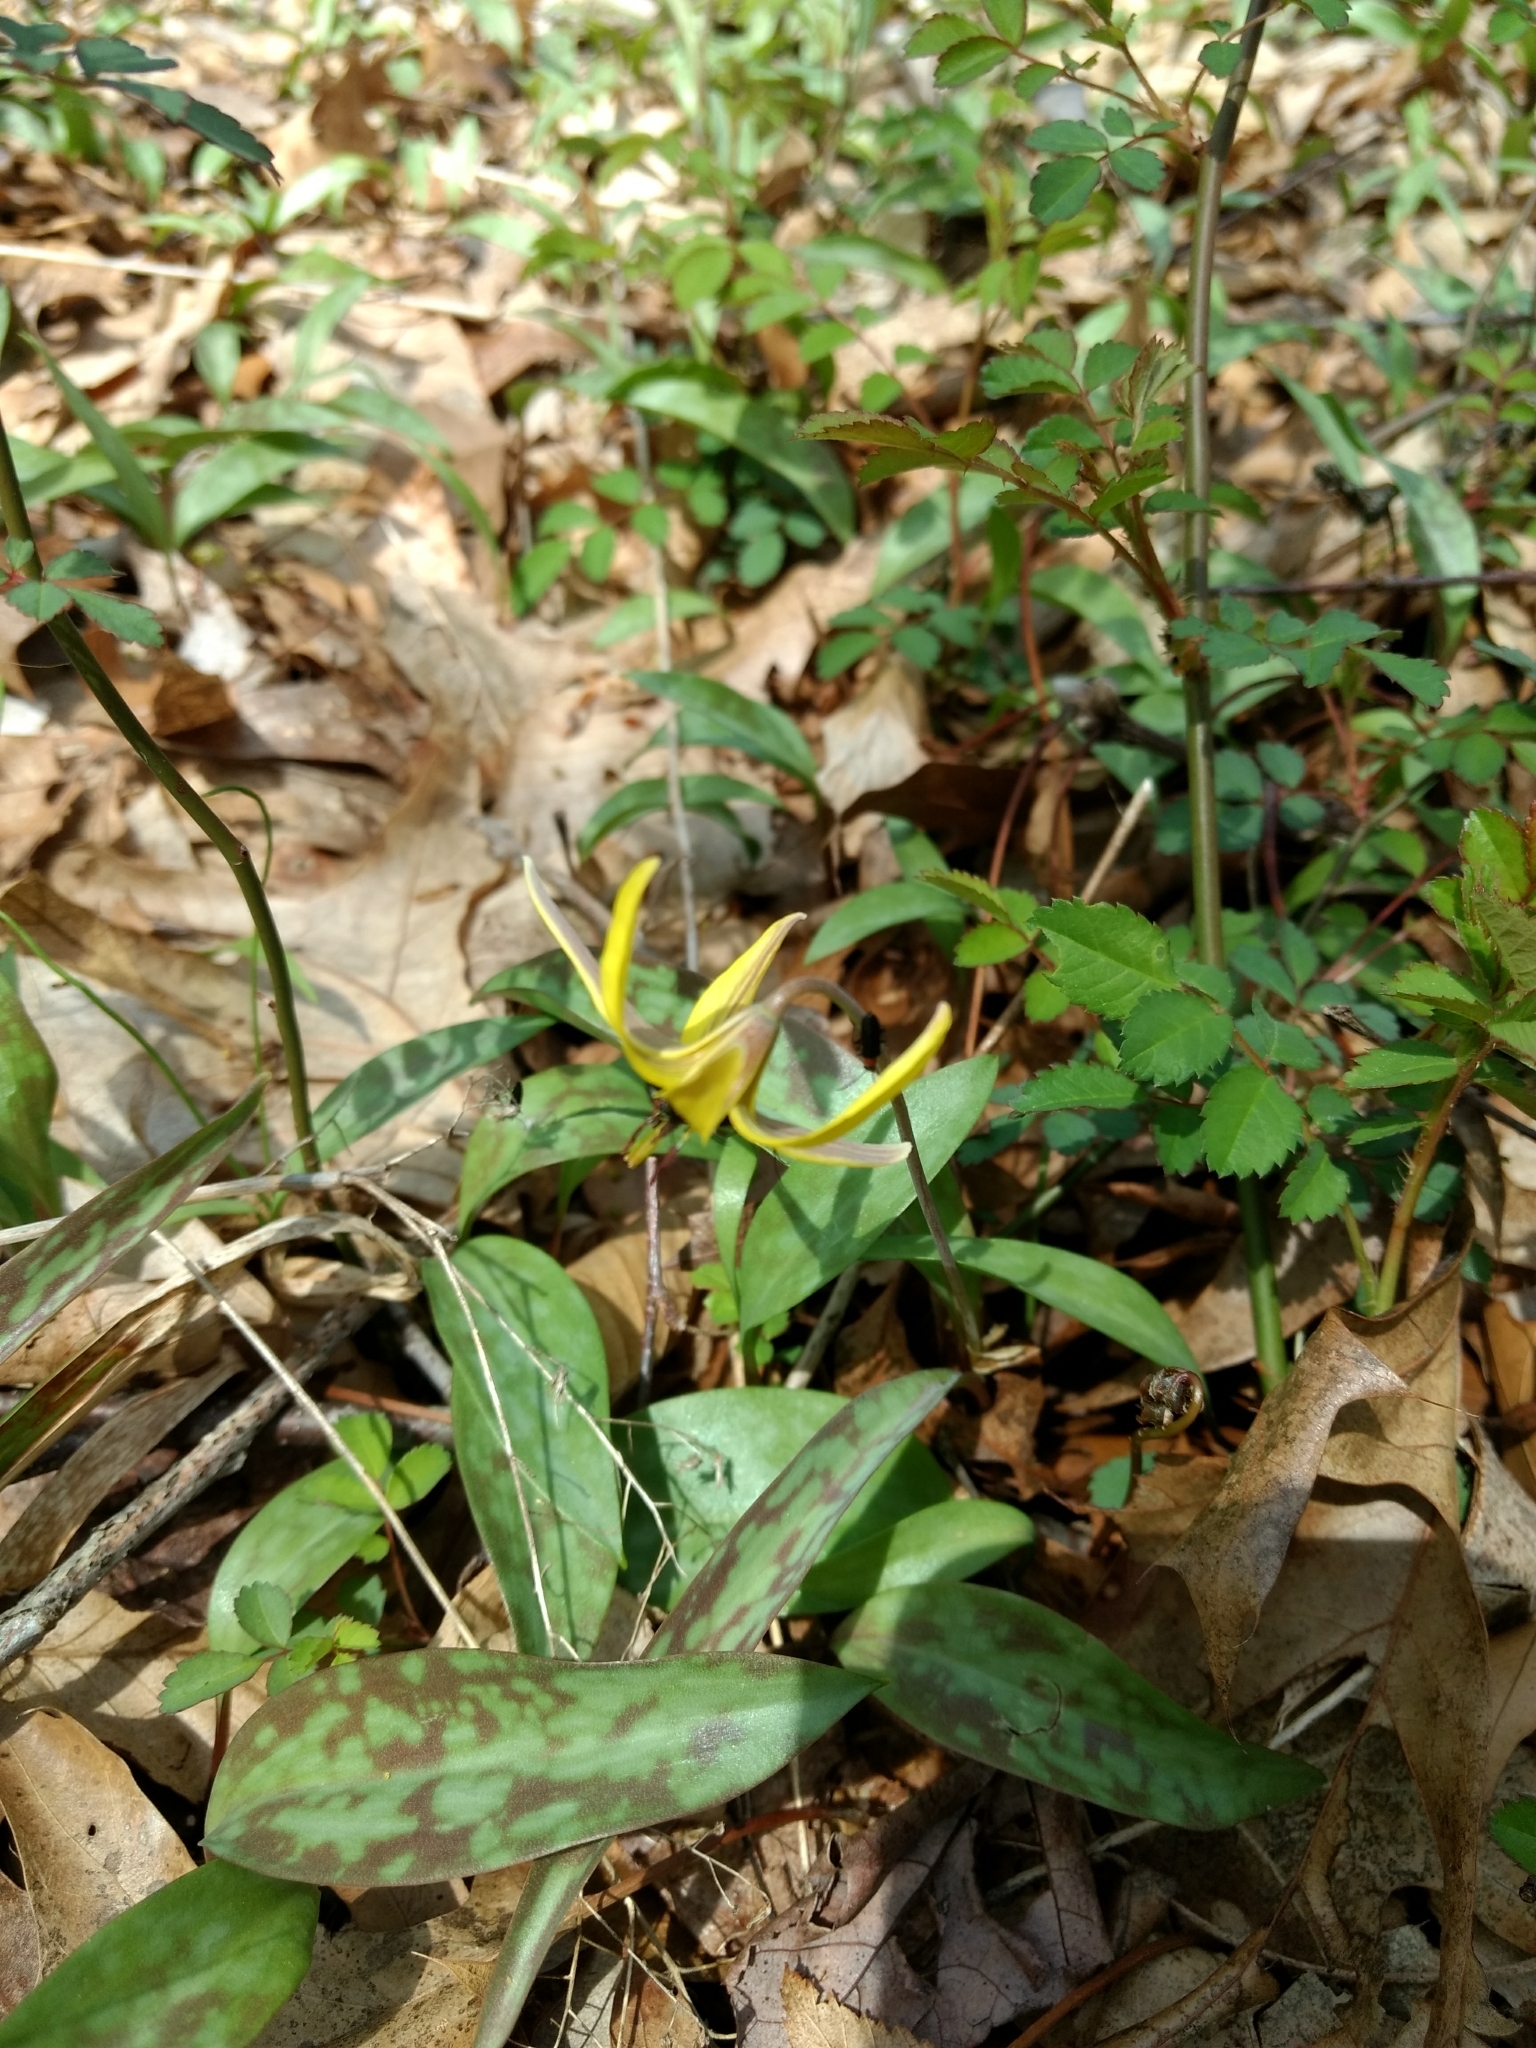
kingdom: Plantae
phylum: Tracheophyta
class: Liliopsida
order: Liliales
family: Liliaceae
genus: Erythronium
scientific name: Erythronium americanum
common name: Yellow adder's-tongue
